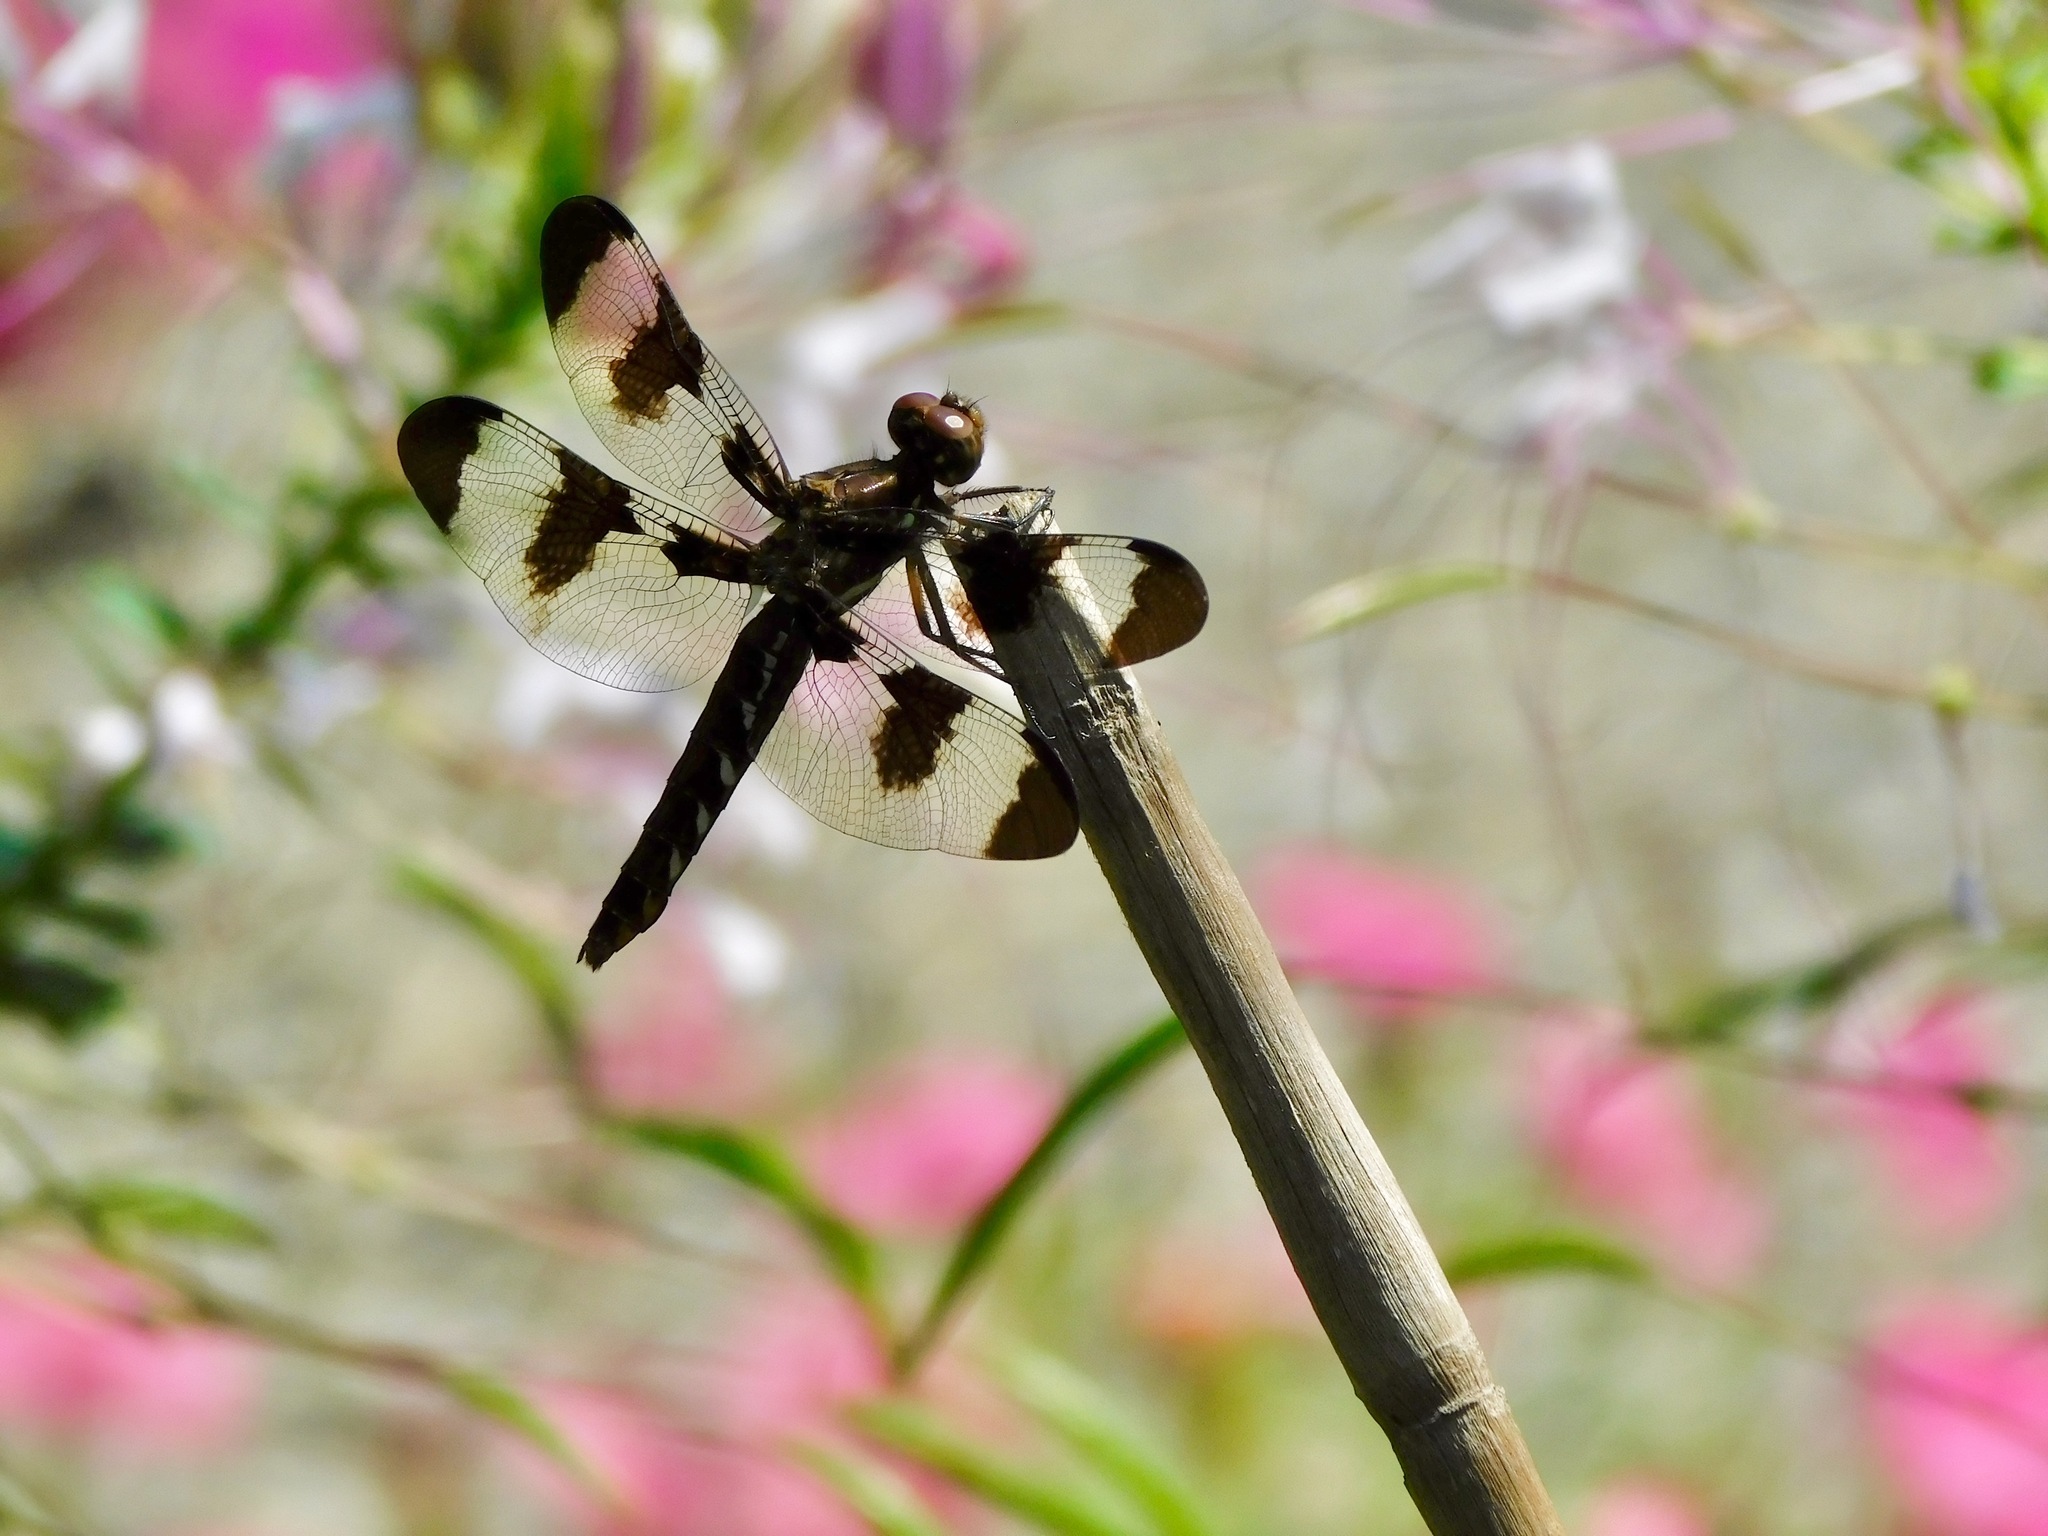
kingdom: Animalia
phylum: Arthropoda
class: Insecta
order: Odonata
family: Libellulidae
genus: Plathemis
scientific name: Plathemis lydia
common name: Common whitetail
